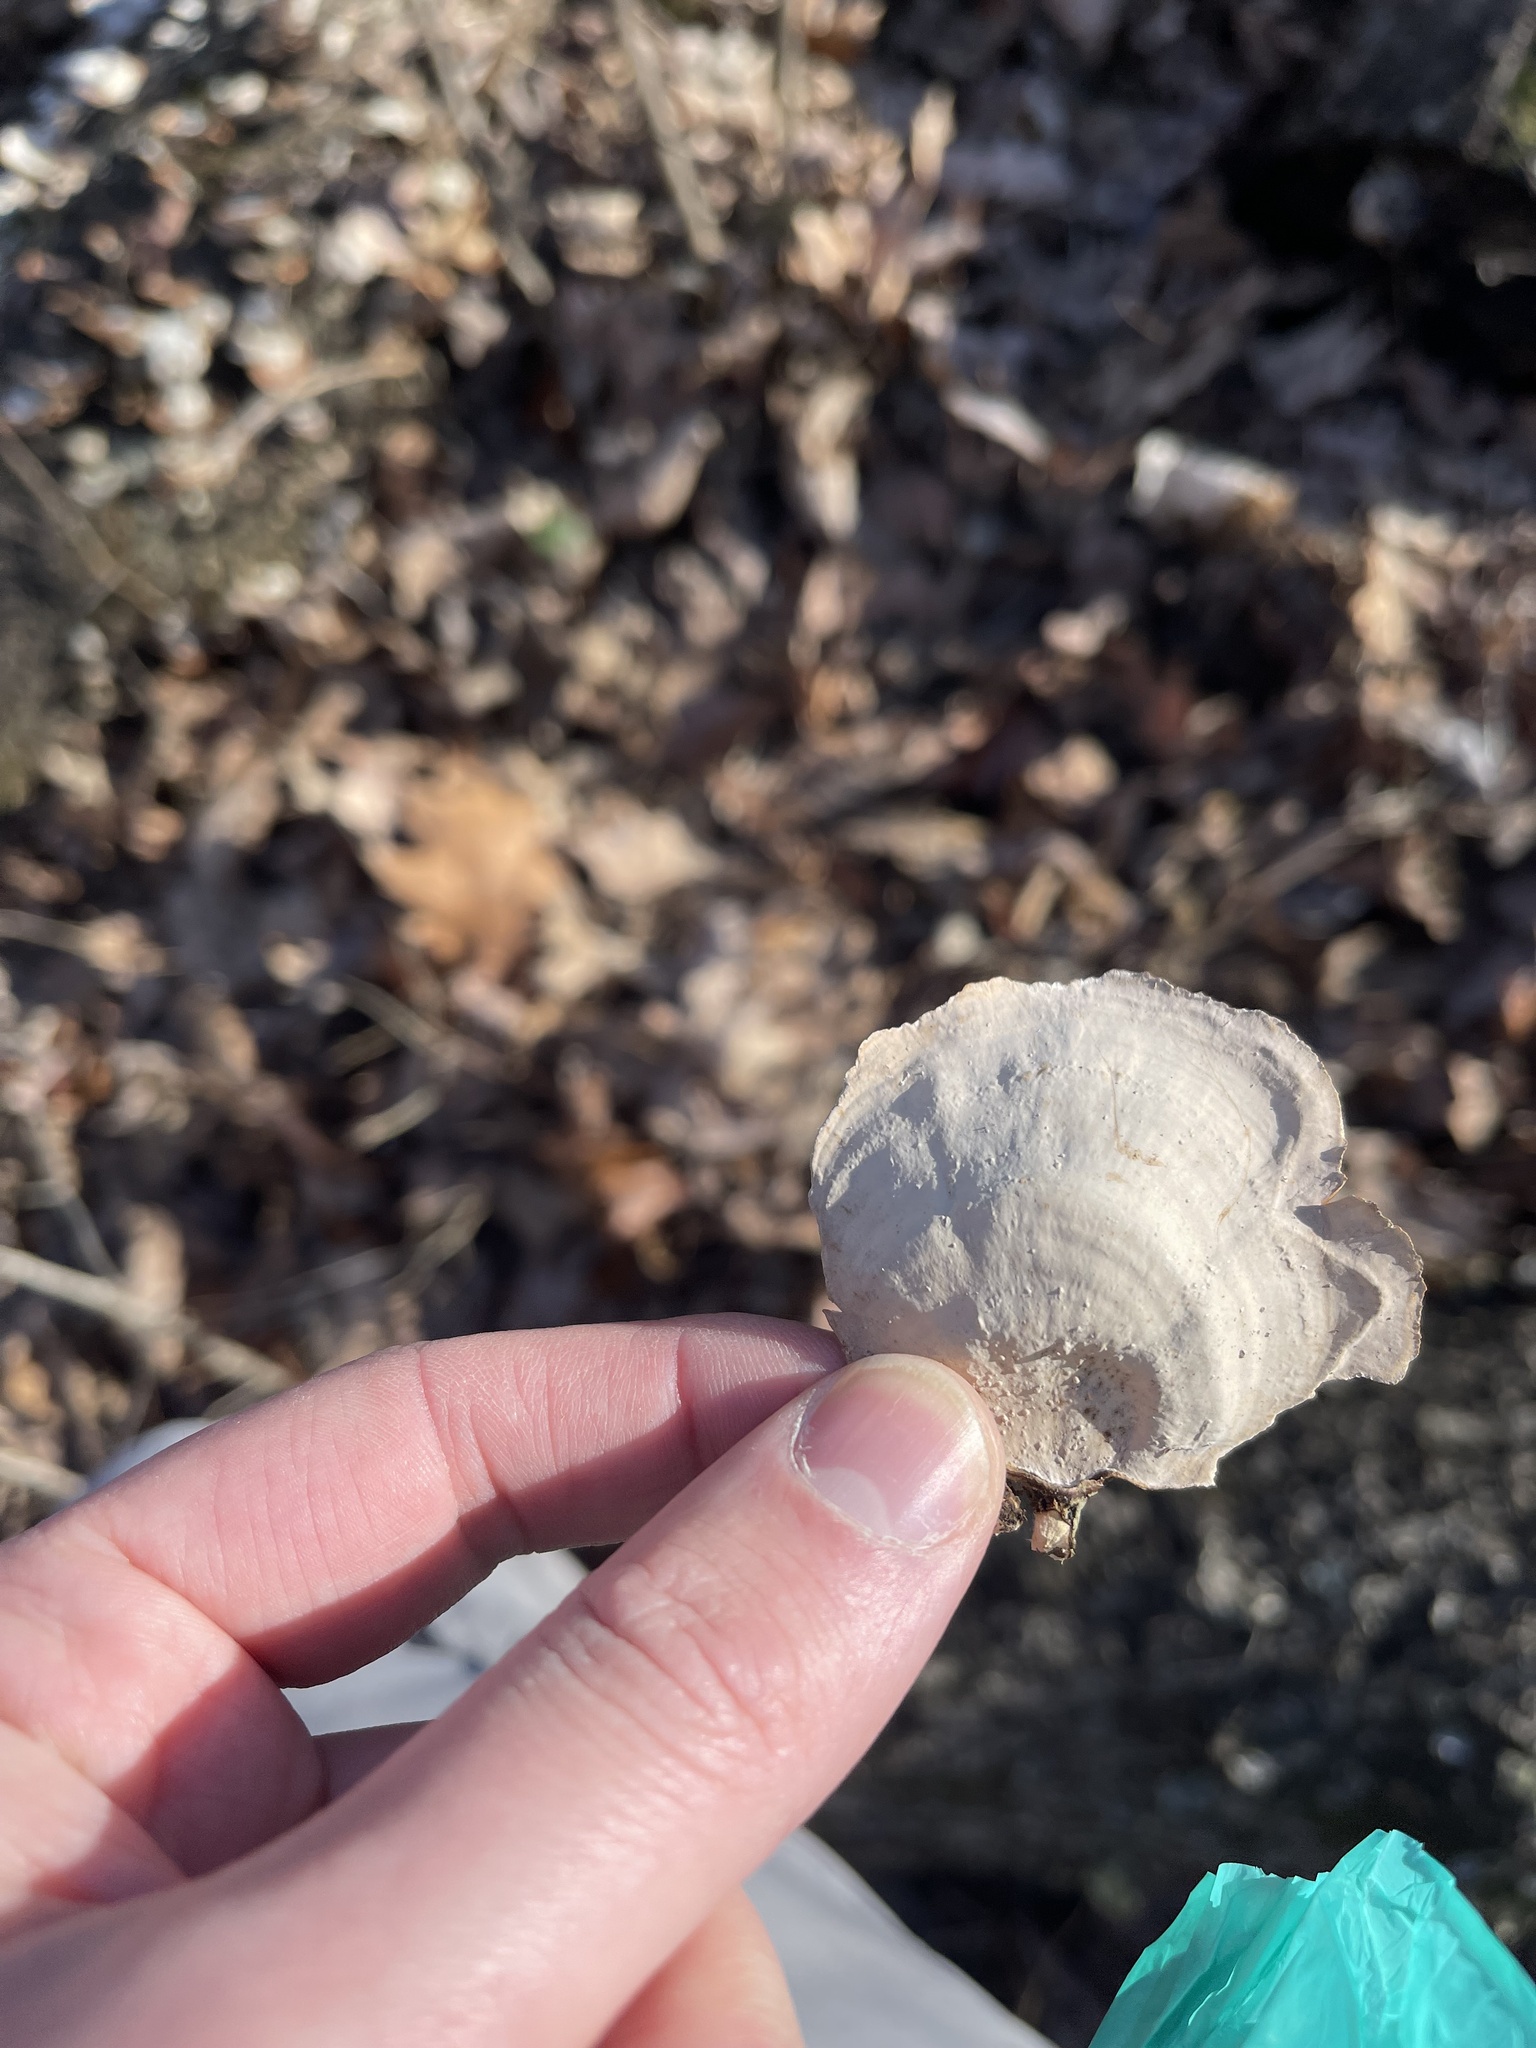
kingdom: Fungi
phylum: Basidiomycota
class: Agaricomycetes
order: Russulales
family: Stereaceae
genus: Stereum
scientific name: Stereum lobatum
